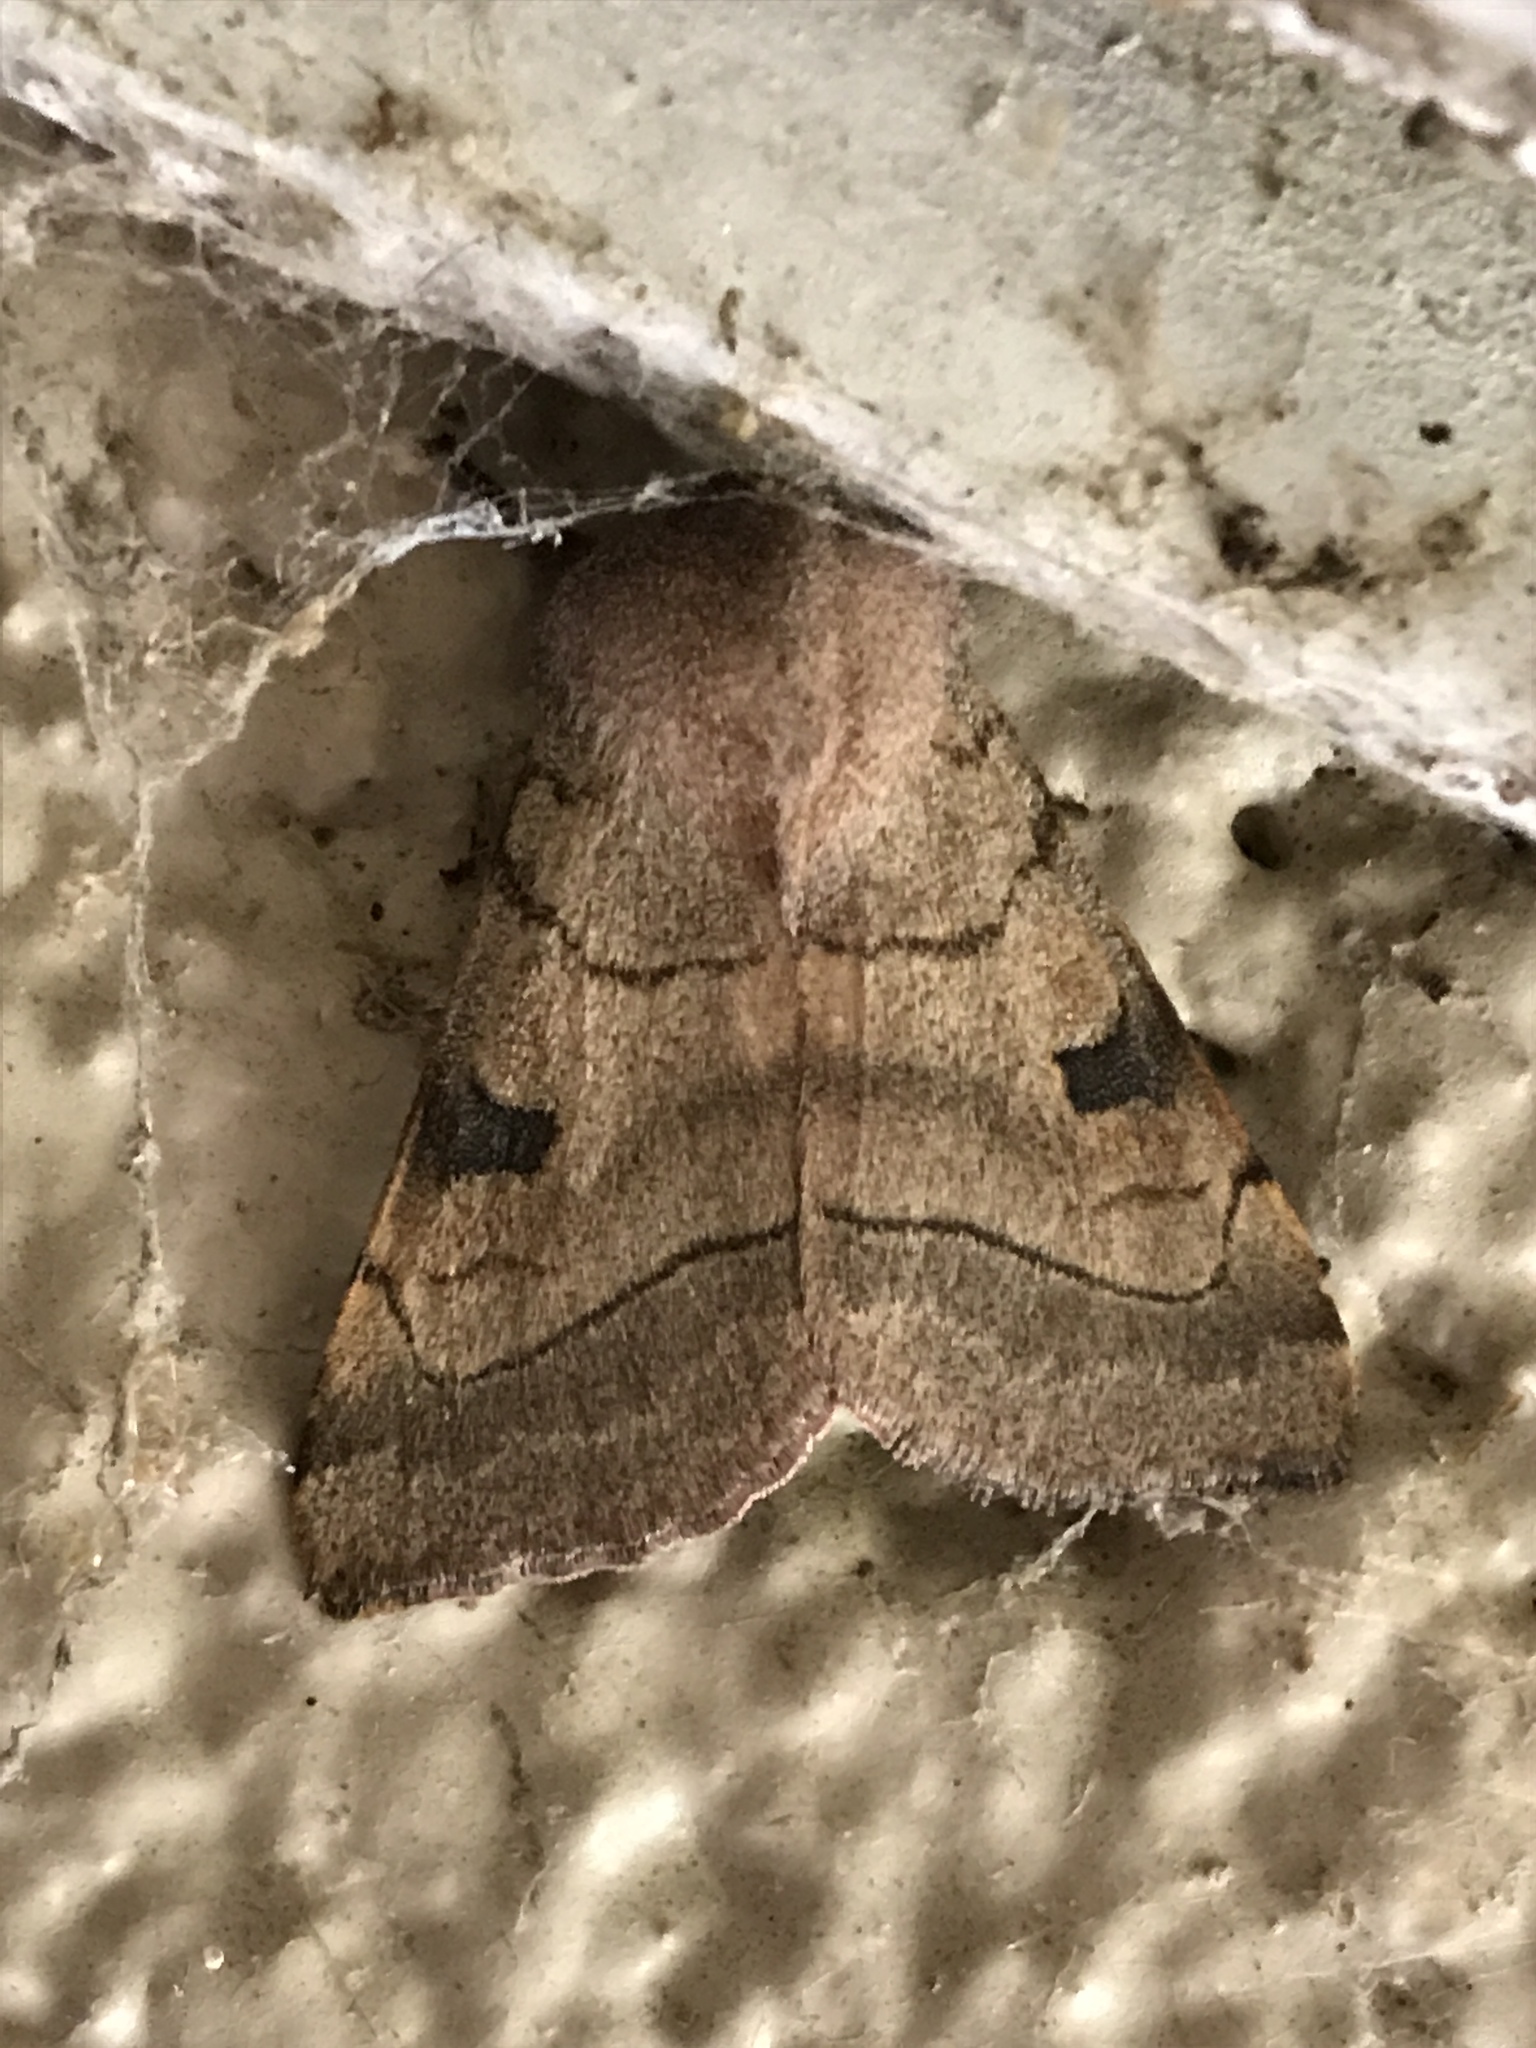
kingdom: Animalia
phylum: Arthropoda
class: Insecta
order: Lepidoptera
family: Noctuidae
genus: Choephora
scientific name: Choephora fungorum
